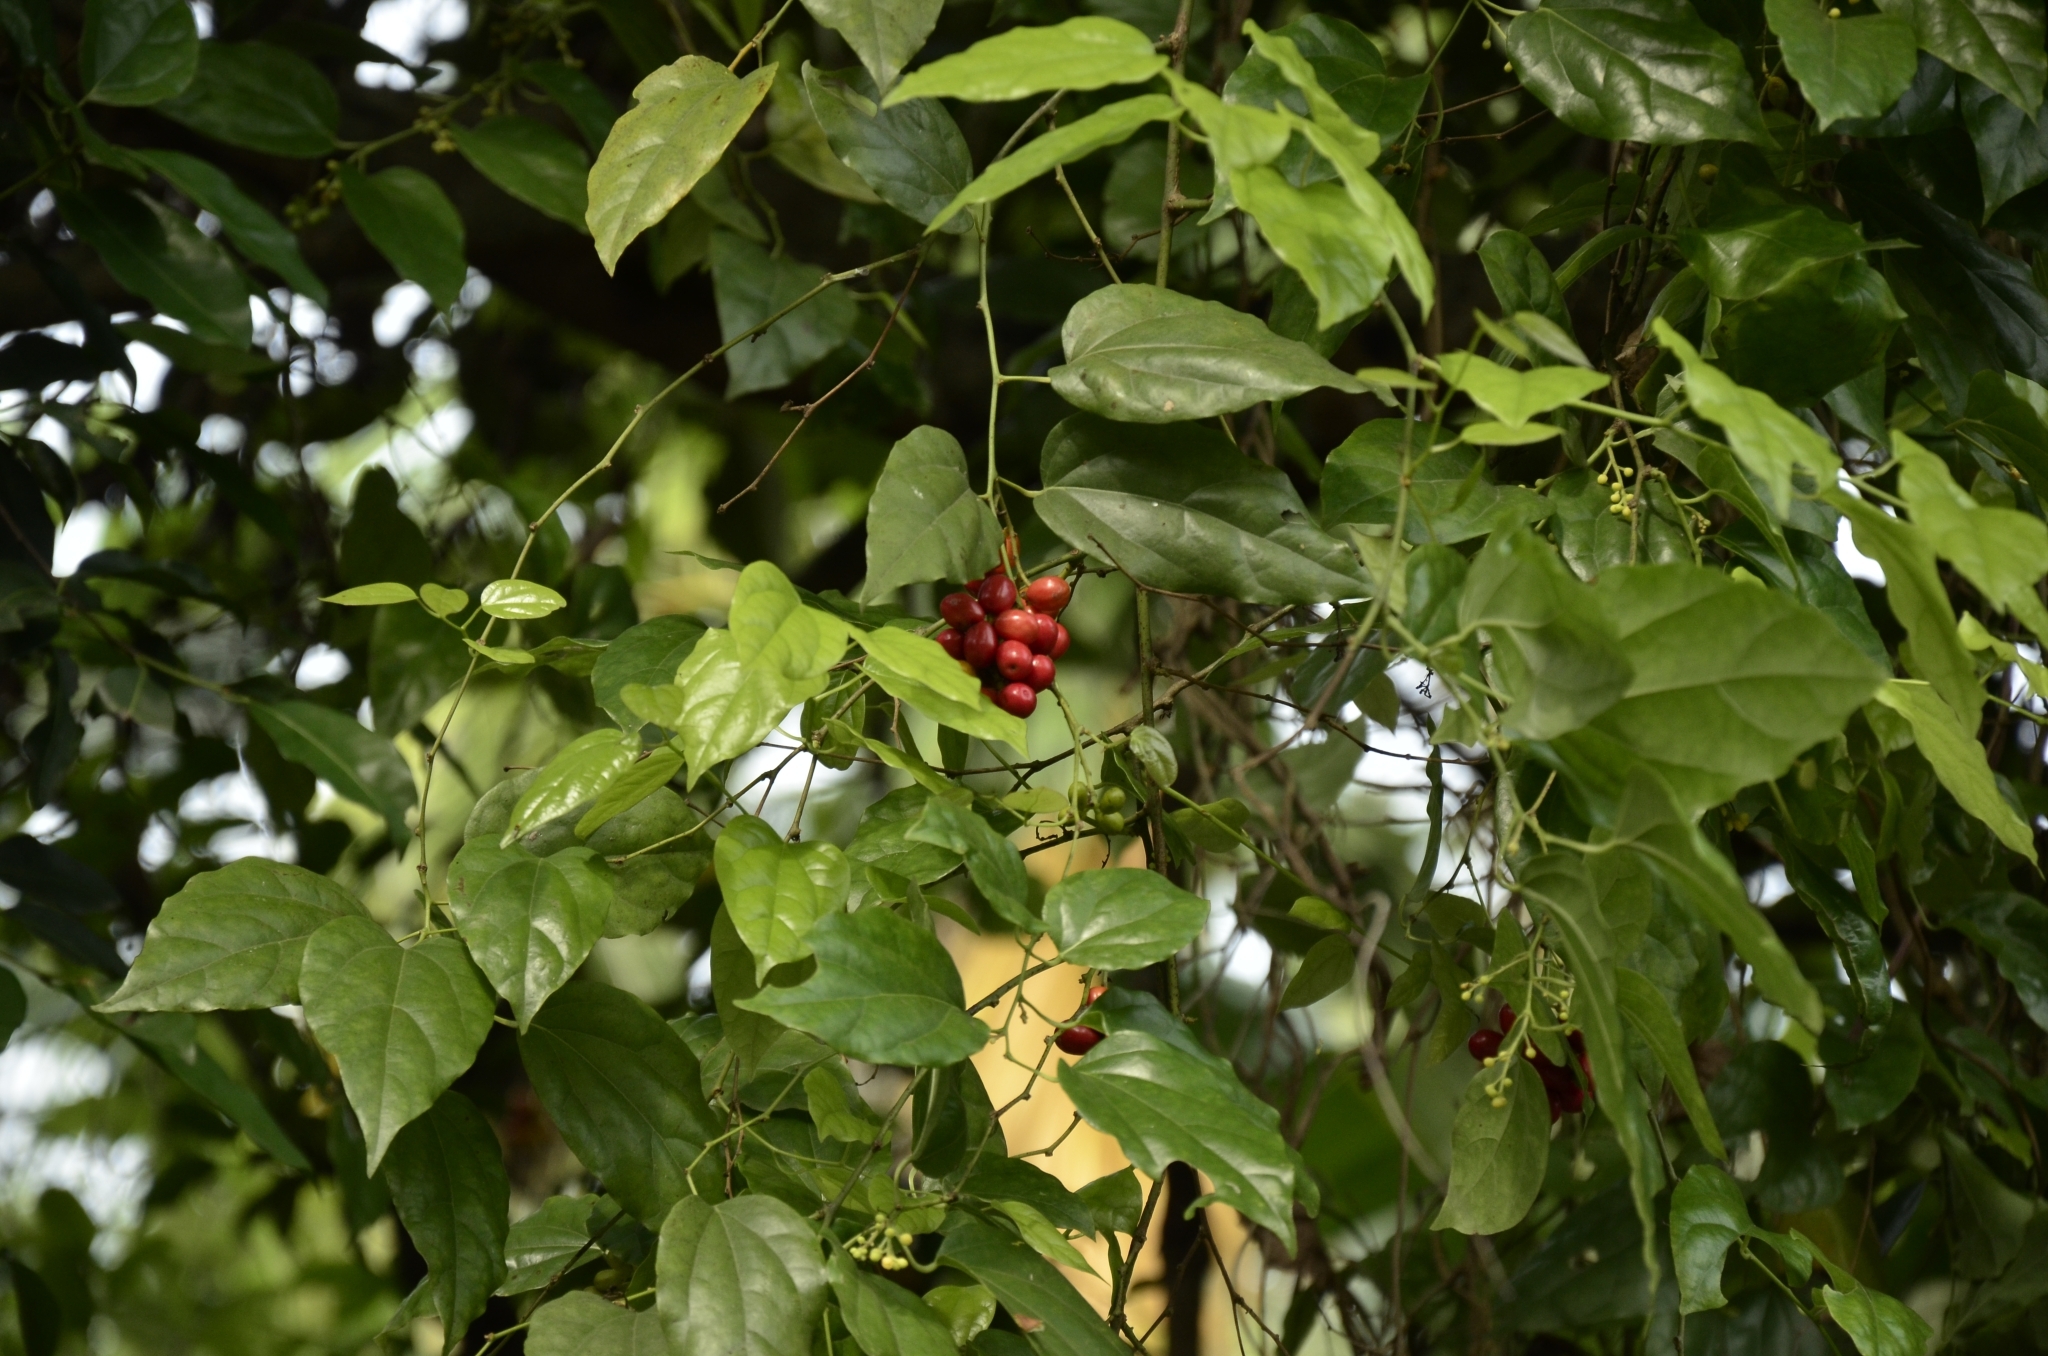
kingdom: Plantae
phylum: Tracheophyta
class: Magnoliopsida
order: Ranunculales
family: Menispermaceae
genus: Tiliacora
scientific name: Tiliacora acuminata
